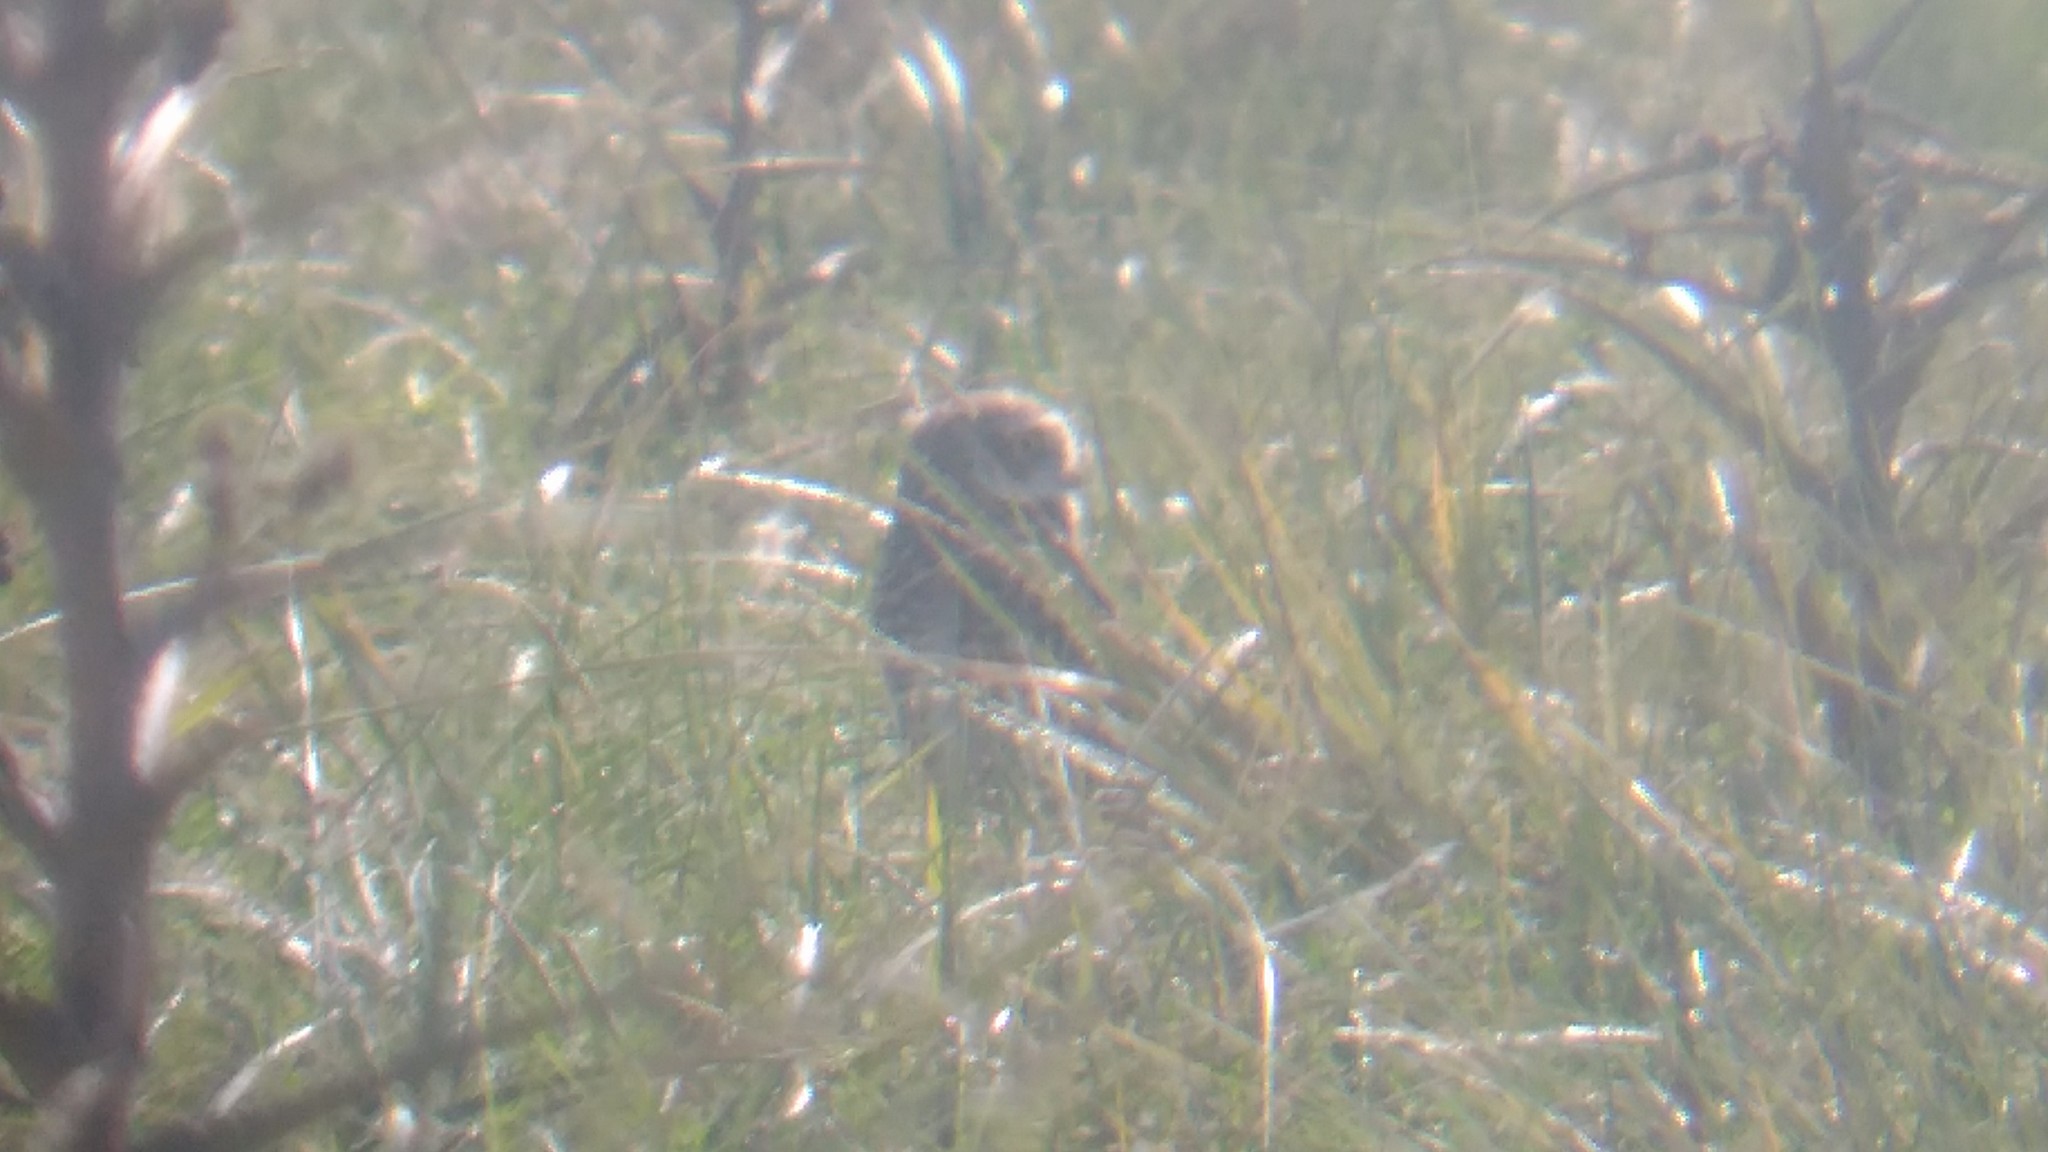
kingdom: Animalia
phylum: Chordata
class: Aves
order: Strigiformes
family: Strigidae
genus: Athene
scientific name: Athene cunicularia
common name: Burrowing owl
